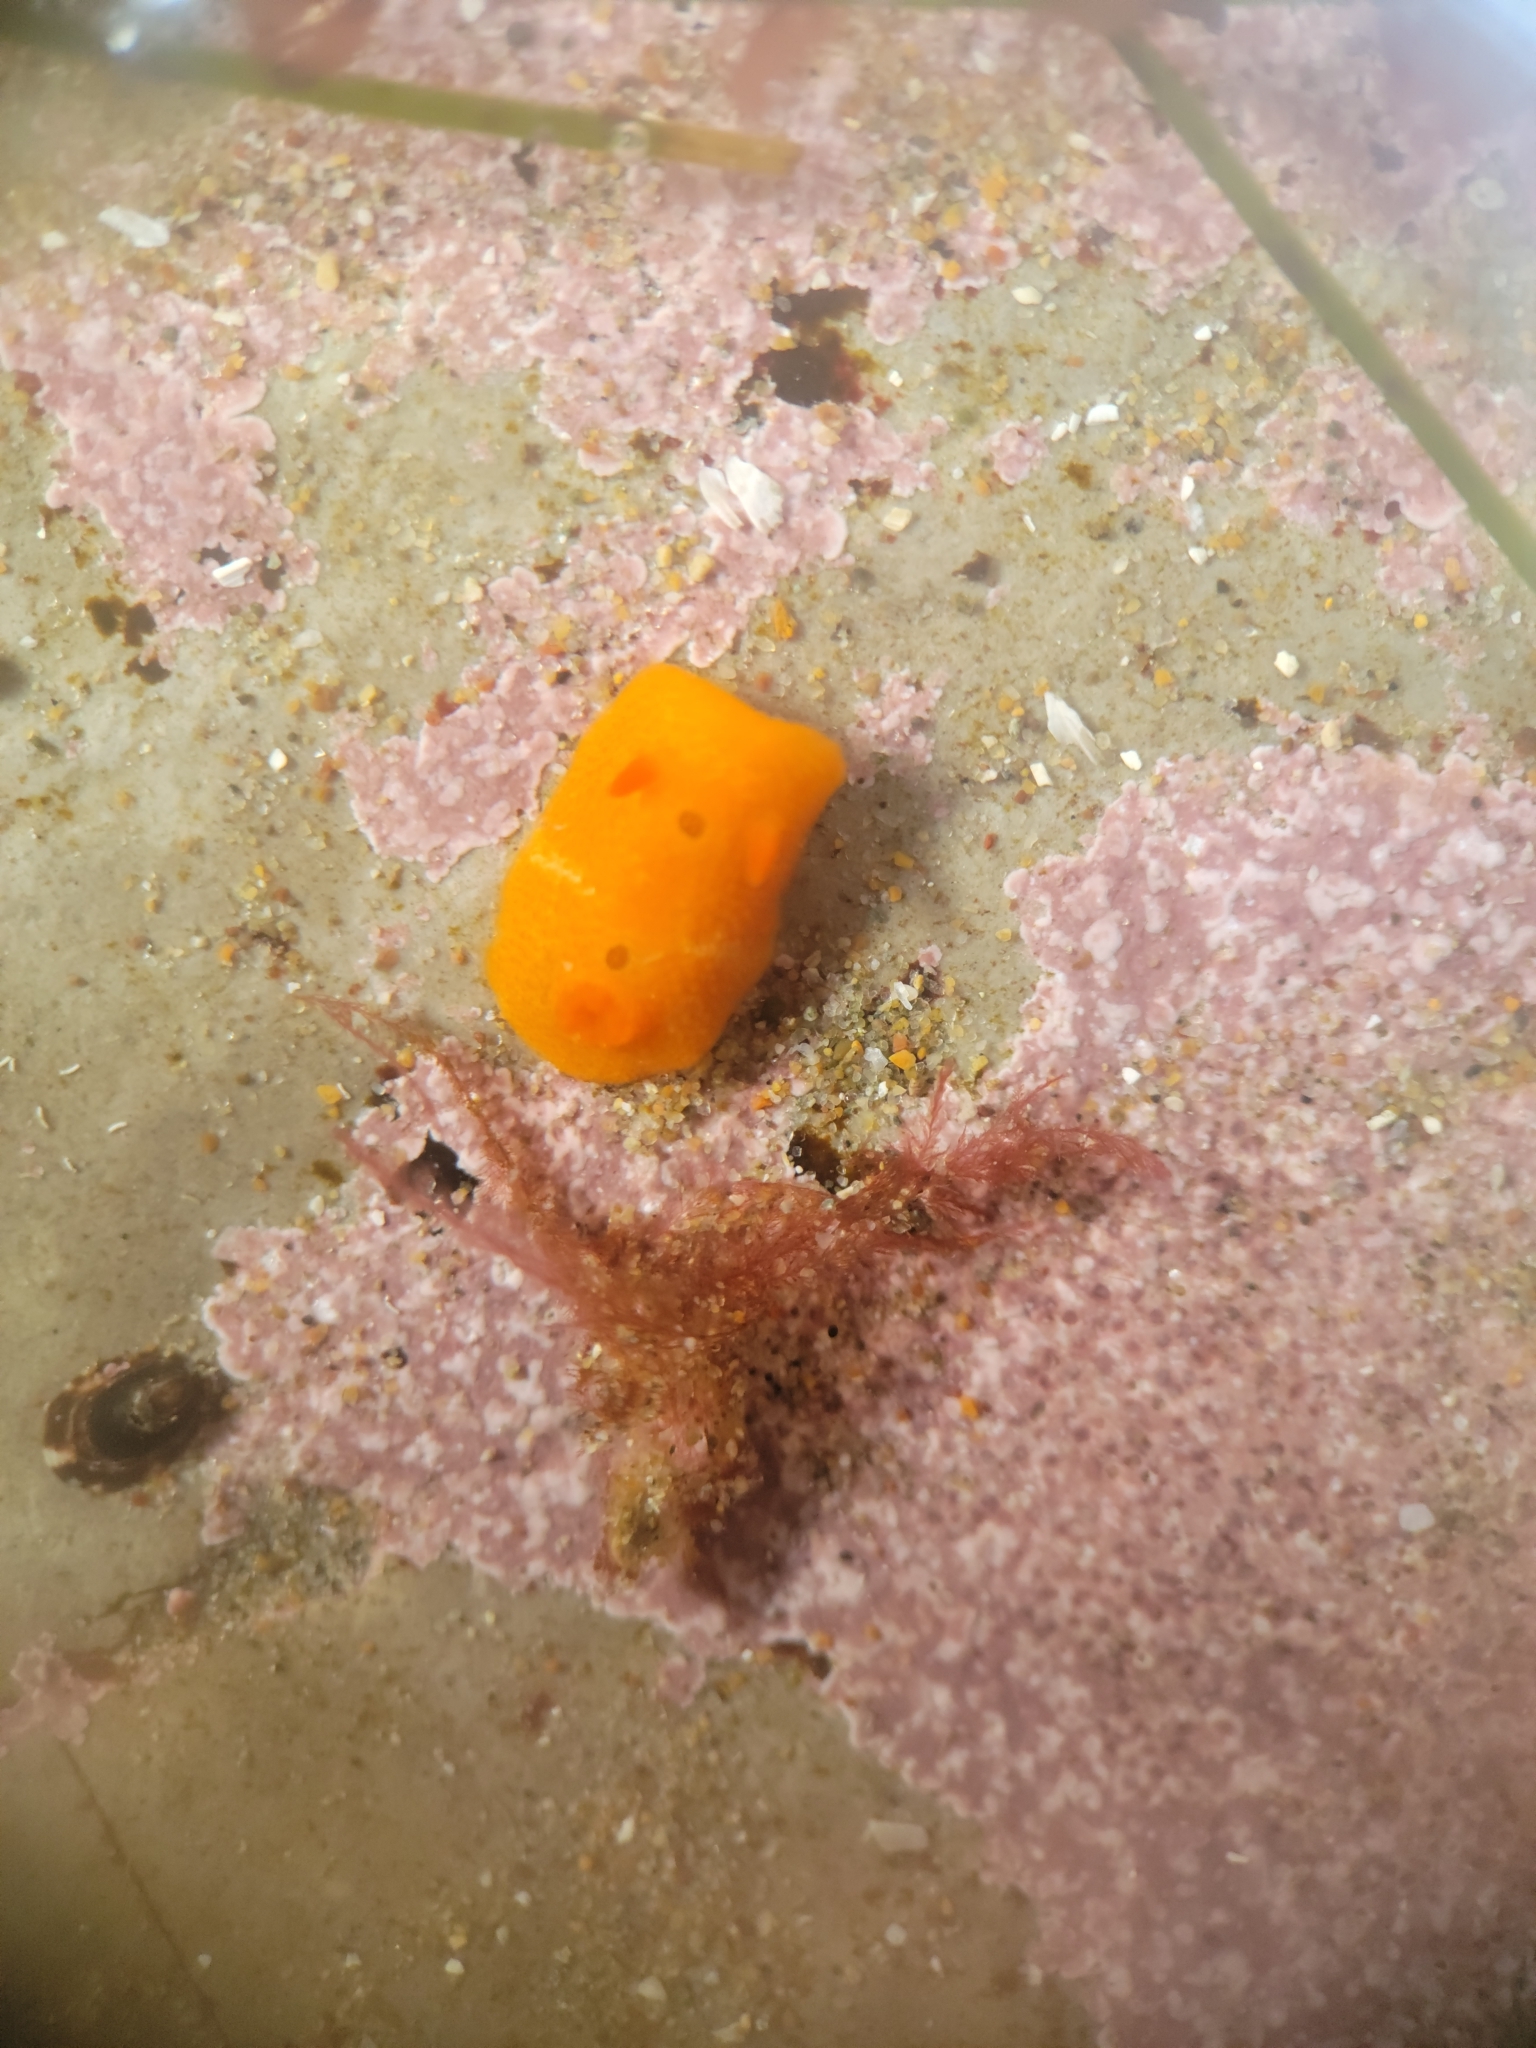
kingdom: Animalia
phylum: Mollusca
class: Gastropoda
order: Nudibranchia
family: Cadlinidae
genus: Aldisa
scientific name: Aldisa sanguinea
